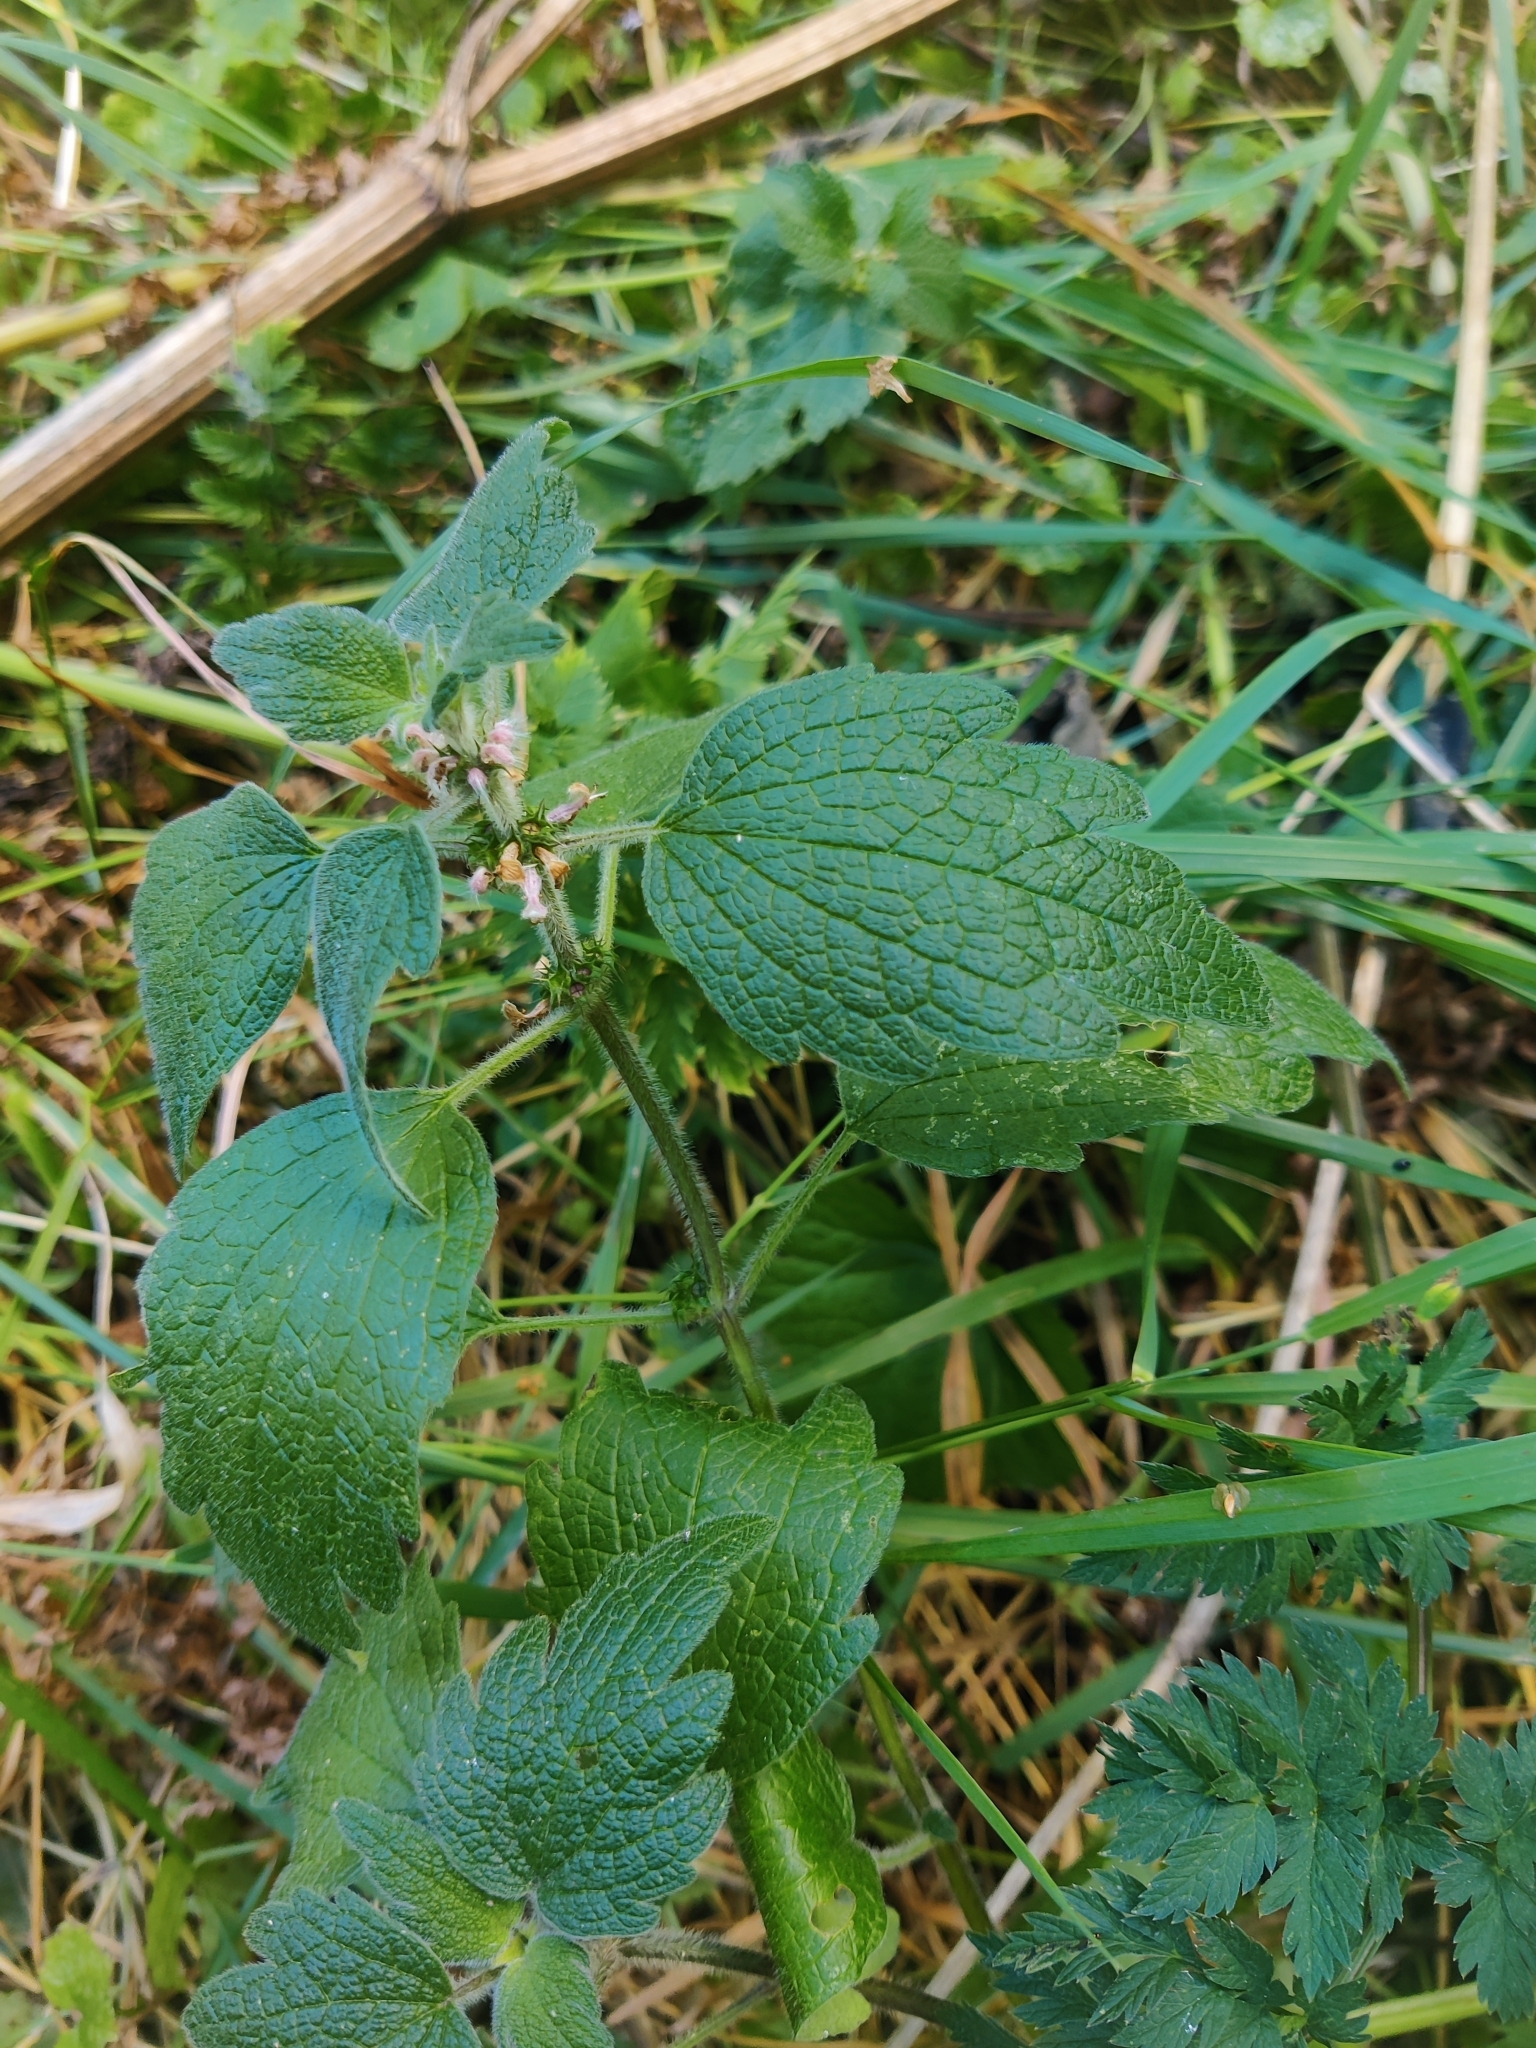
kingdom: Plantae
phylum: Tracheophyta
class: Magnoliopsida
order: Lamiales
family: Lamiaceae
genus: Leonurus
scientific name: Leonurus quinquelobatus
